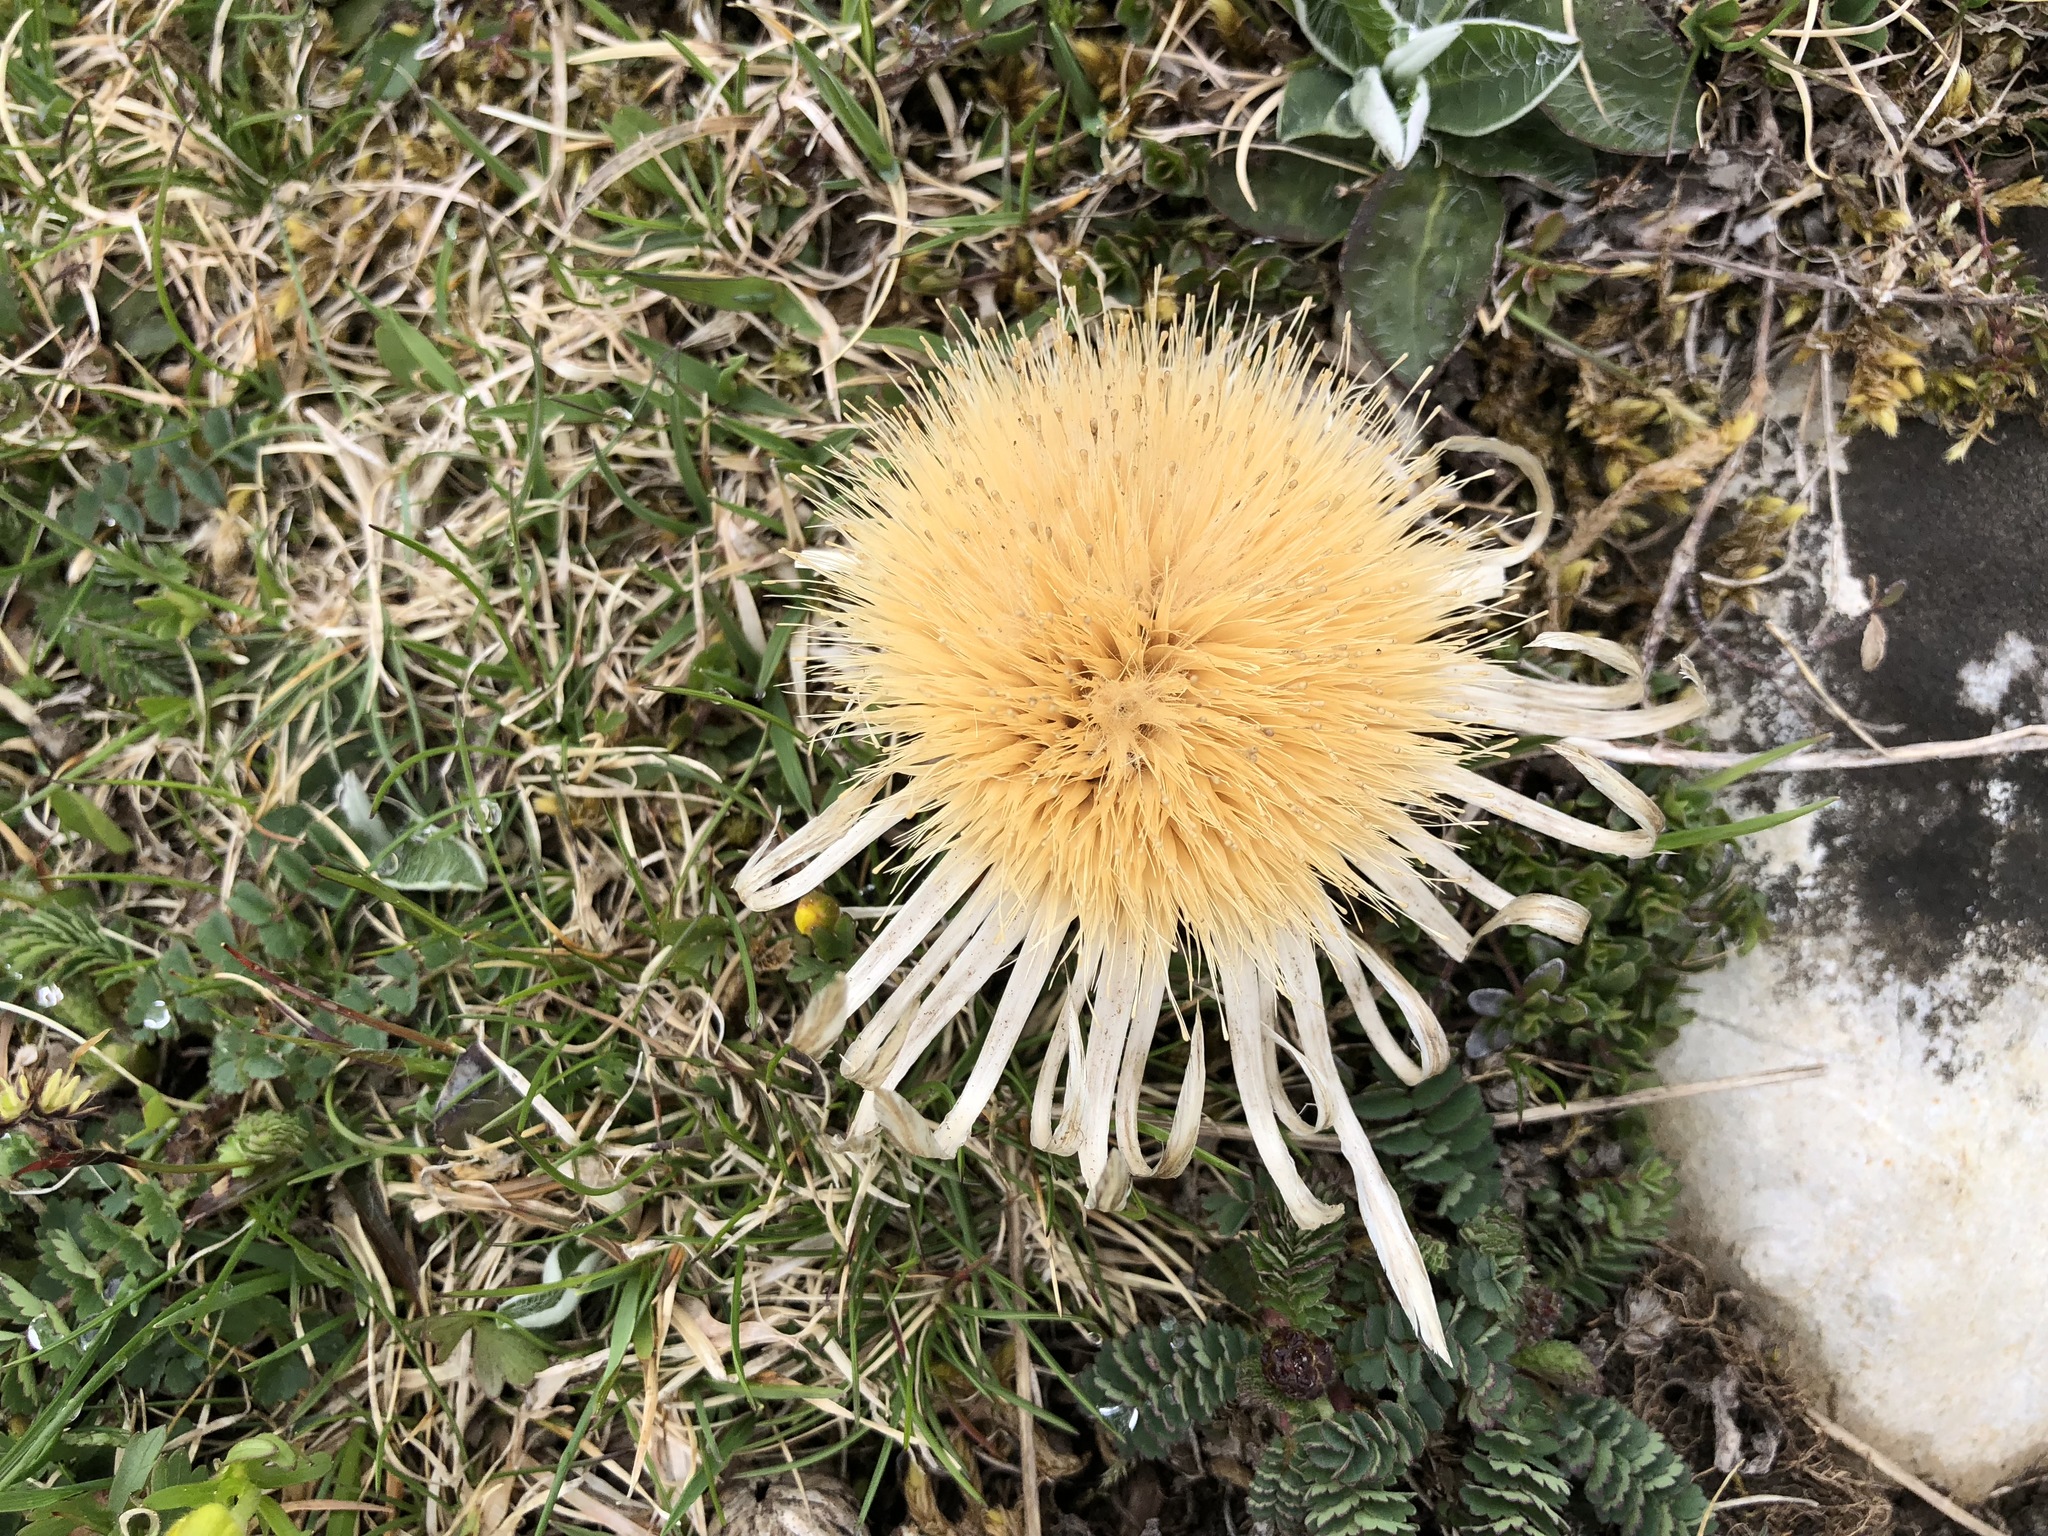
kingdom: Plantae
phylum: Tracheophyta
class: Magnoliopsida
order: Asterales
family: Asteraceae
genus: Carlina
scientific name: Carlina acaulis
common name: Stemless carline thistle
